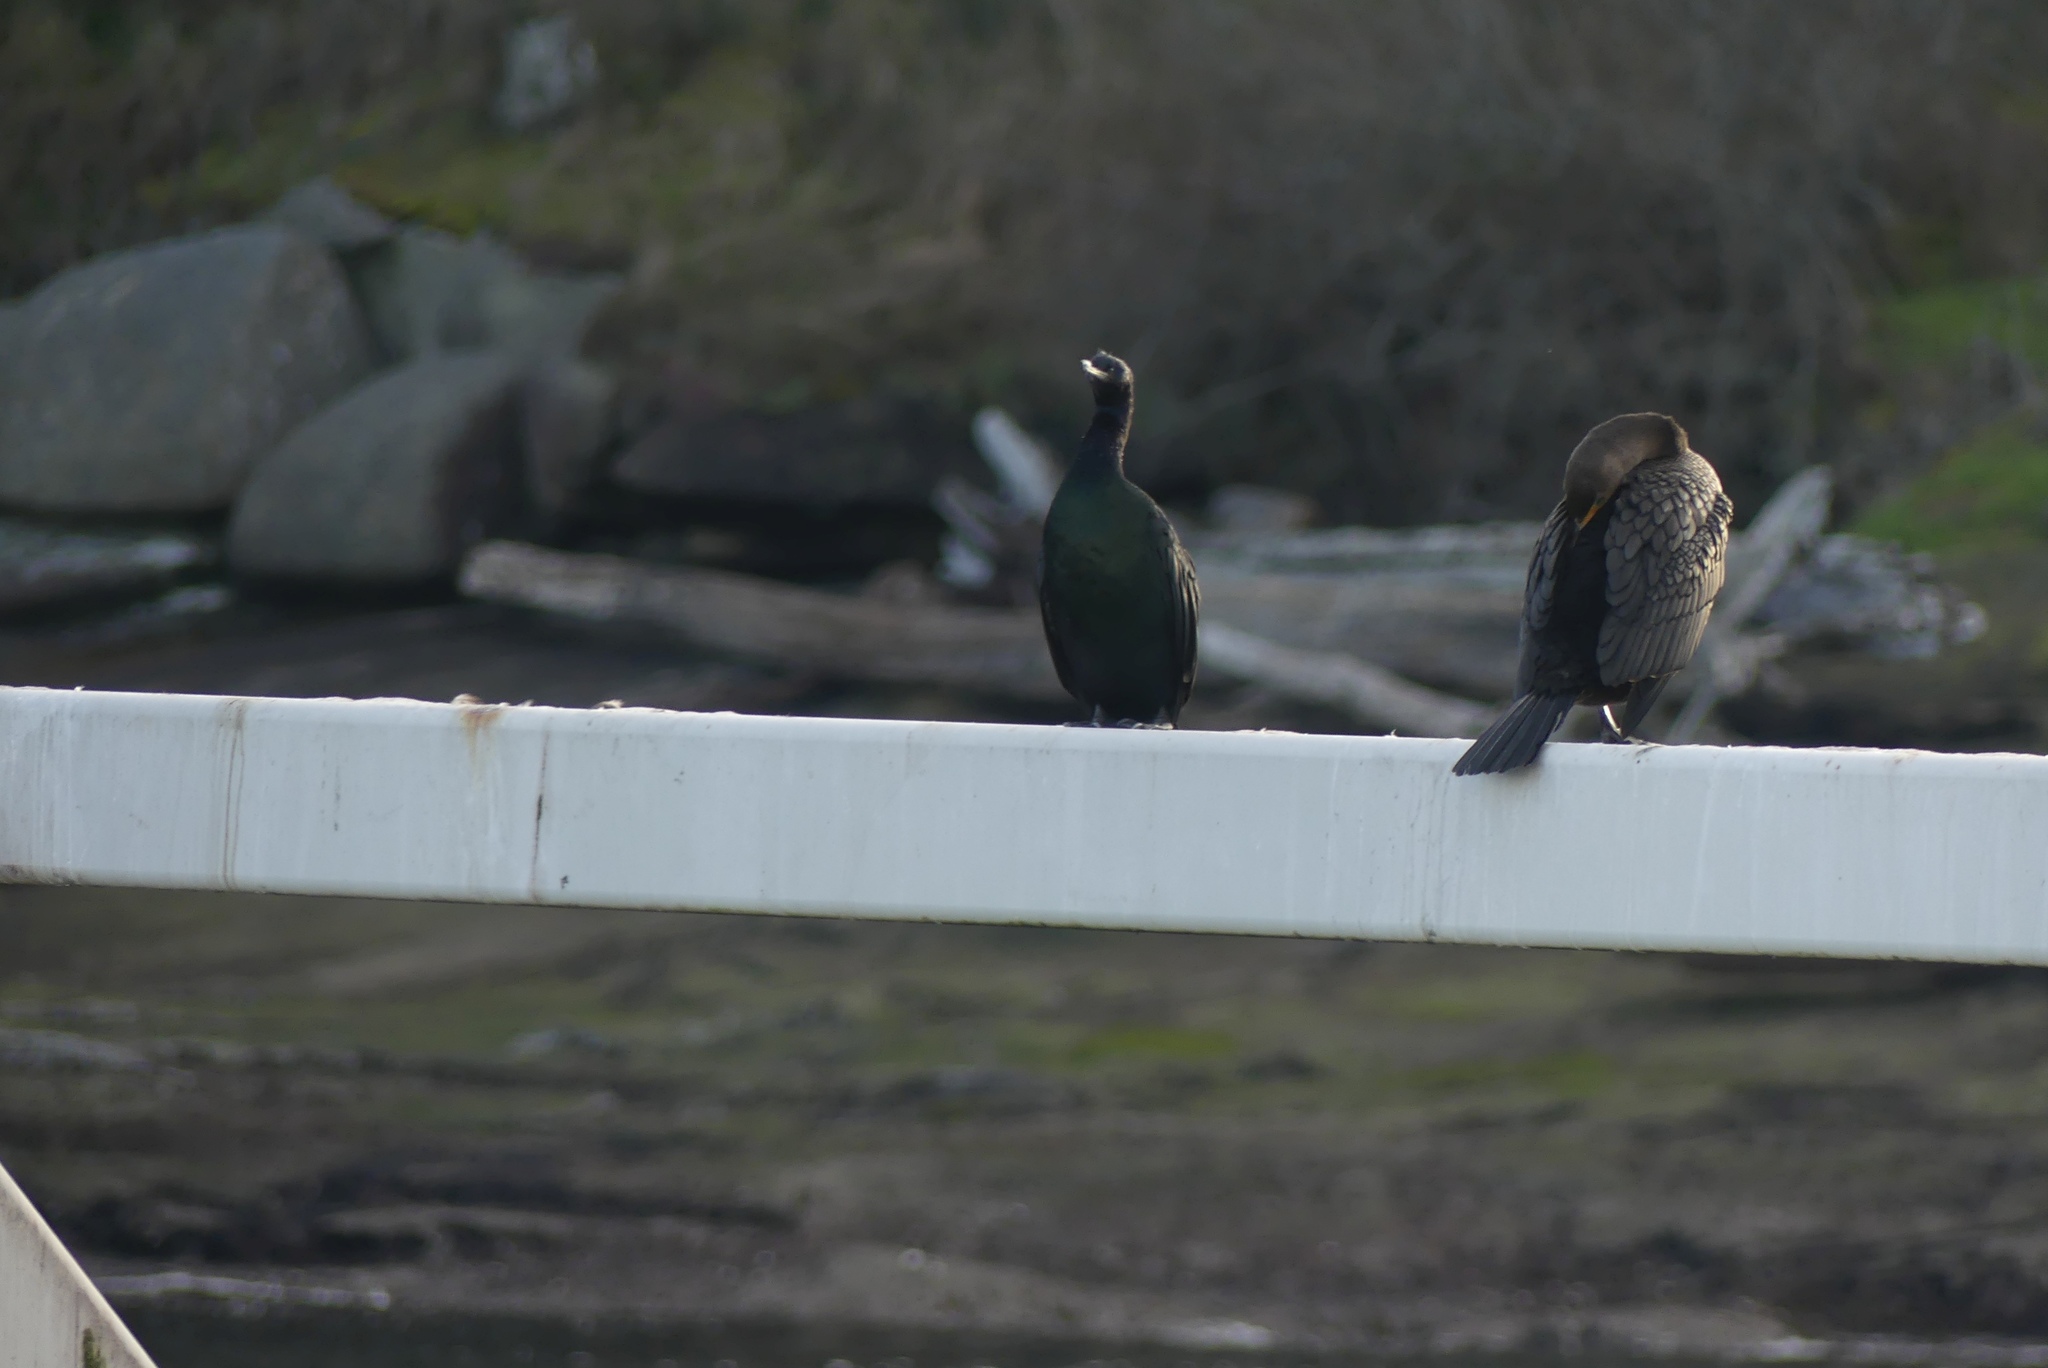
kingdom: Animalia
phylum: Chordata
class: Aves
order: Suliformes
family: Phalacrocoracidae
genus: Phalacrocorax
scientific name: Phalacrocorax pelagicus
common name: Pelagic cormorant
